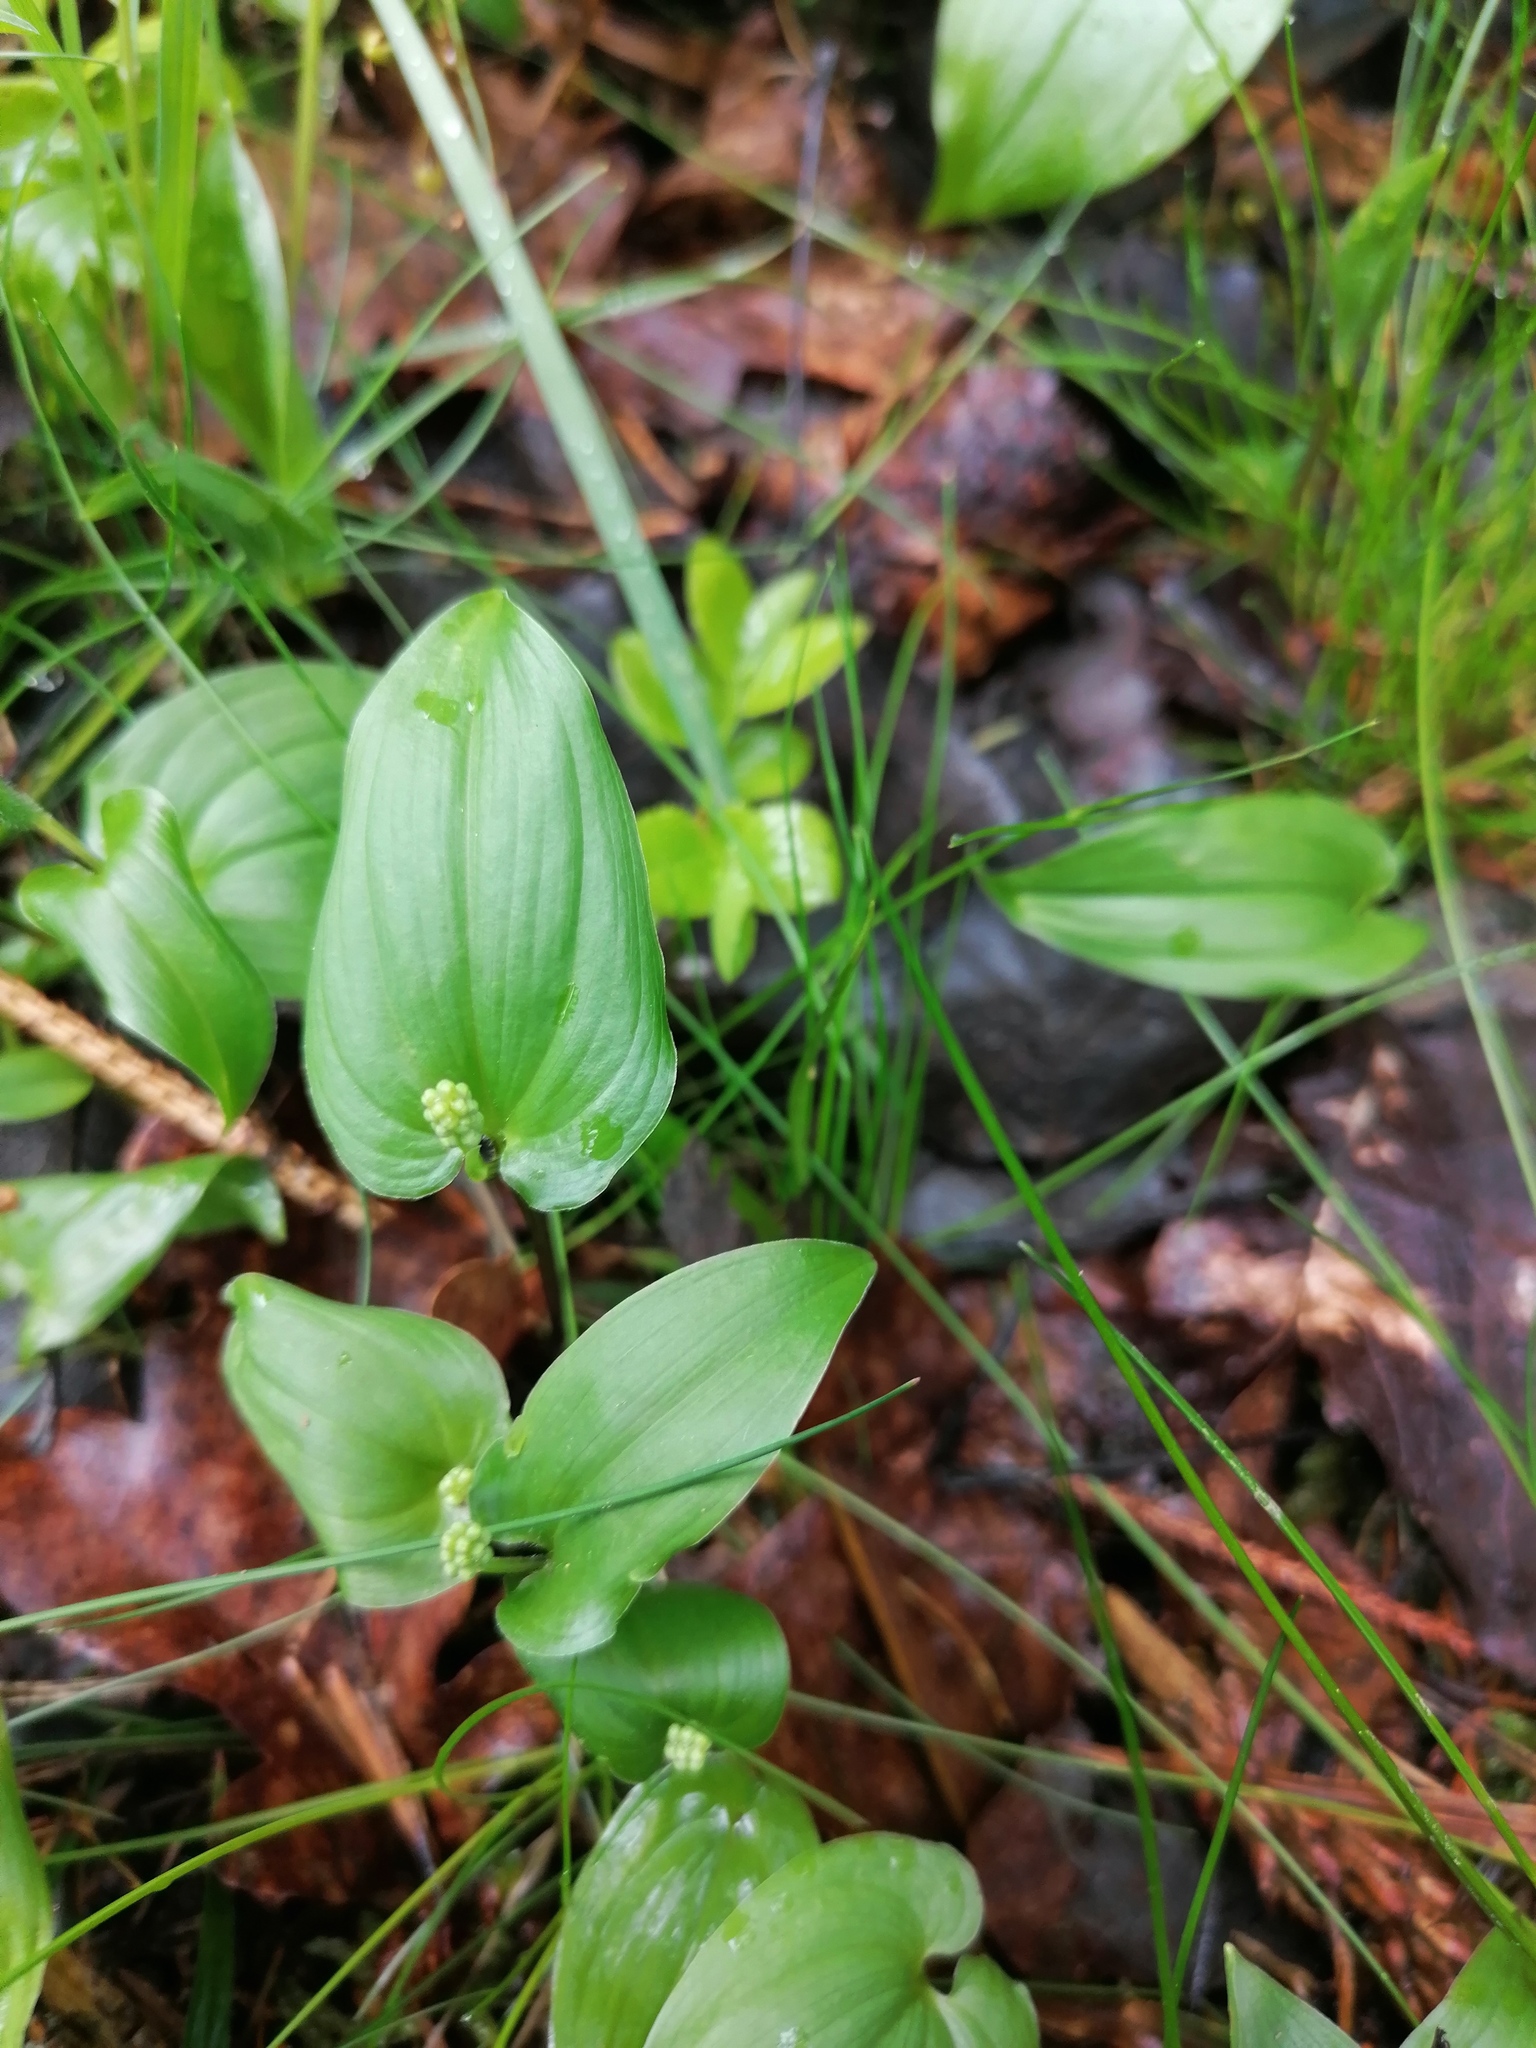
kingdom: Plantae
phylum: Tracheophyta
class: Liliopsida
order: Asparagales
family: Asparagaceae
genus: Maianthemum
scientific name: Maianthemum bifolium
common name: May lily
